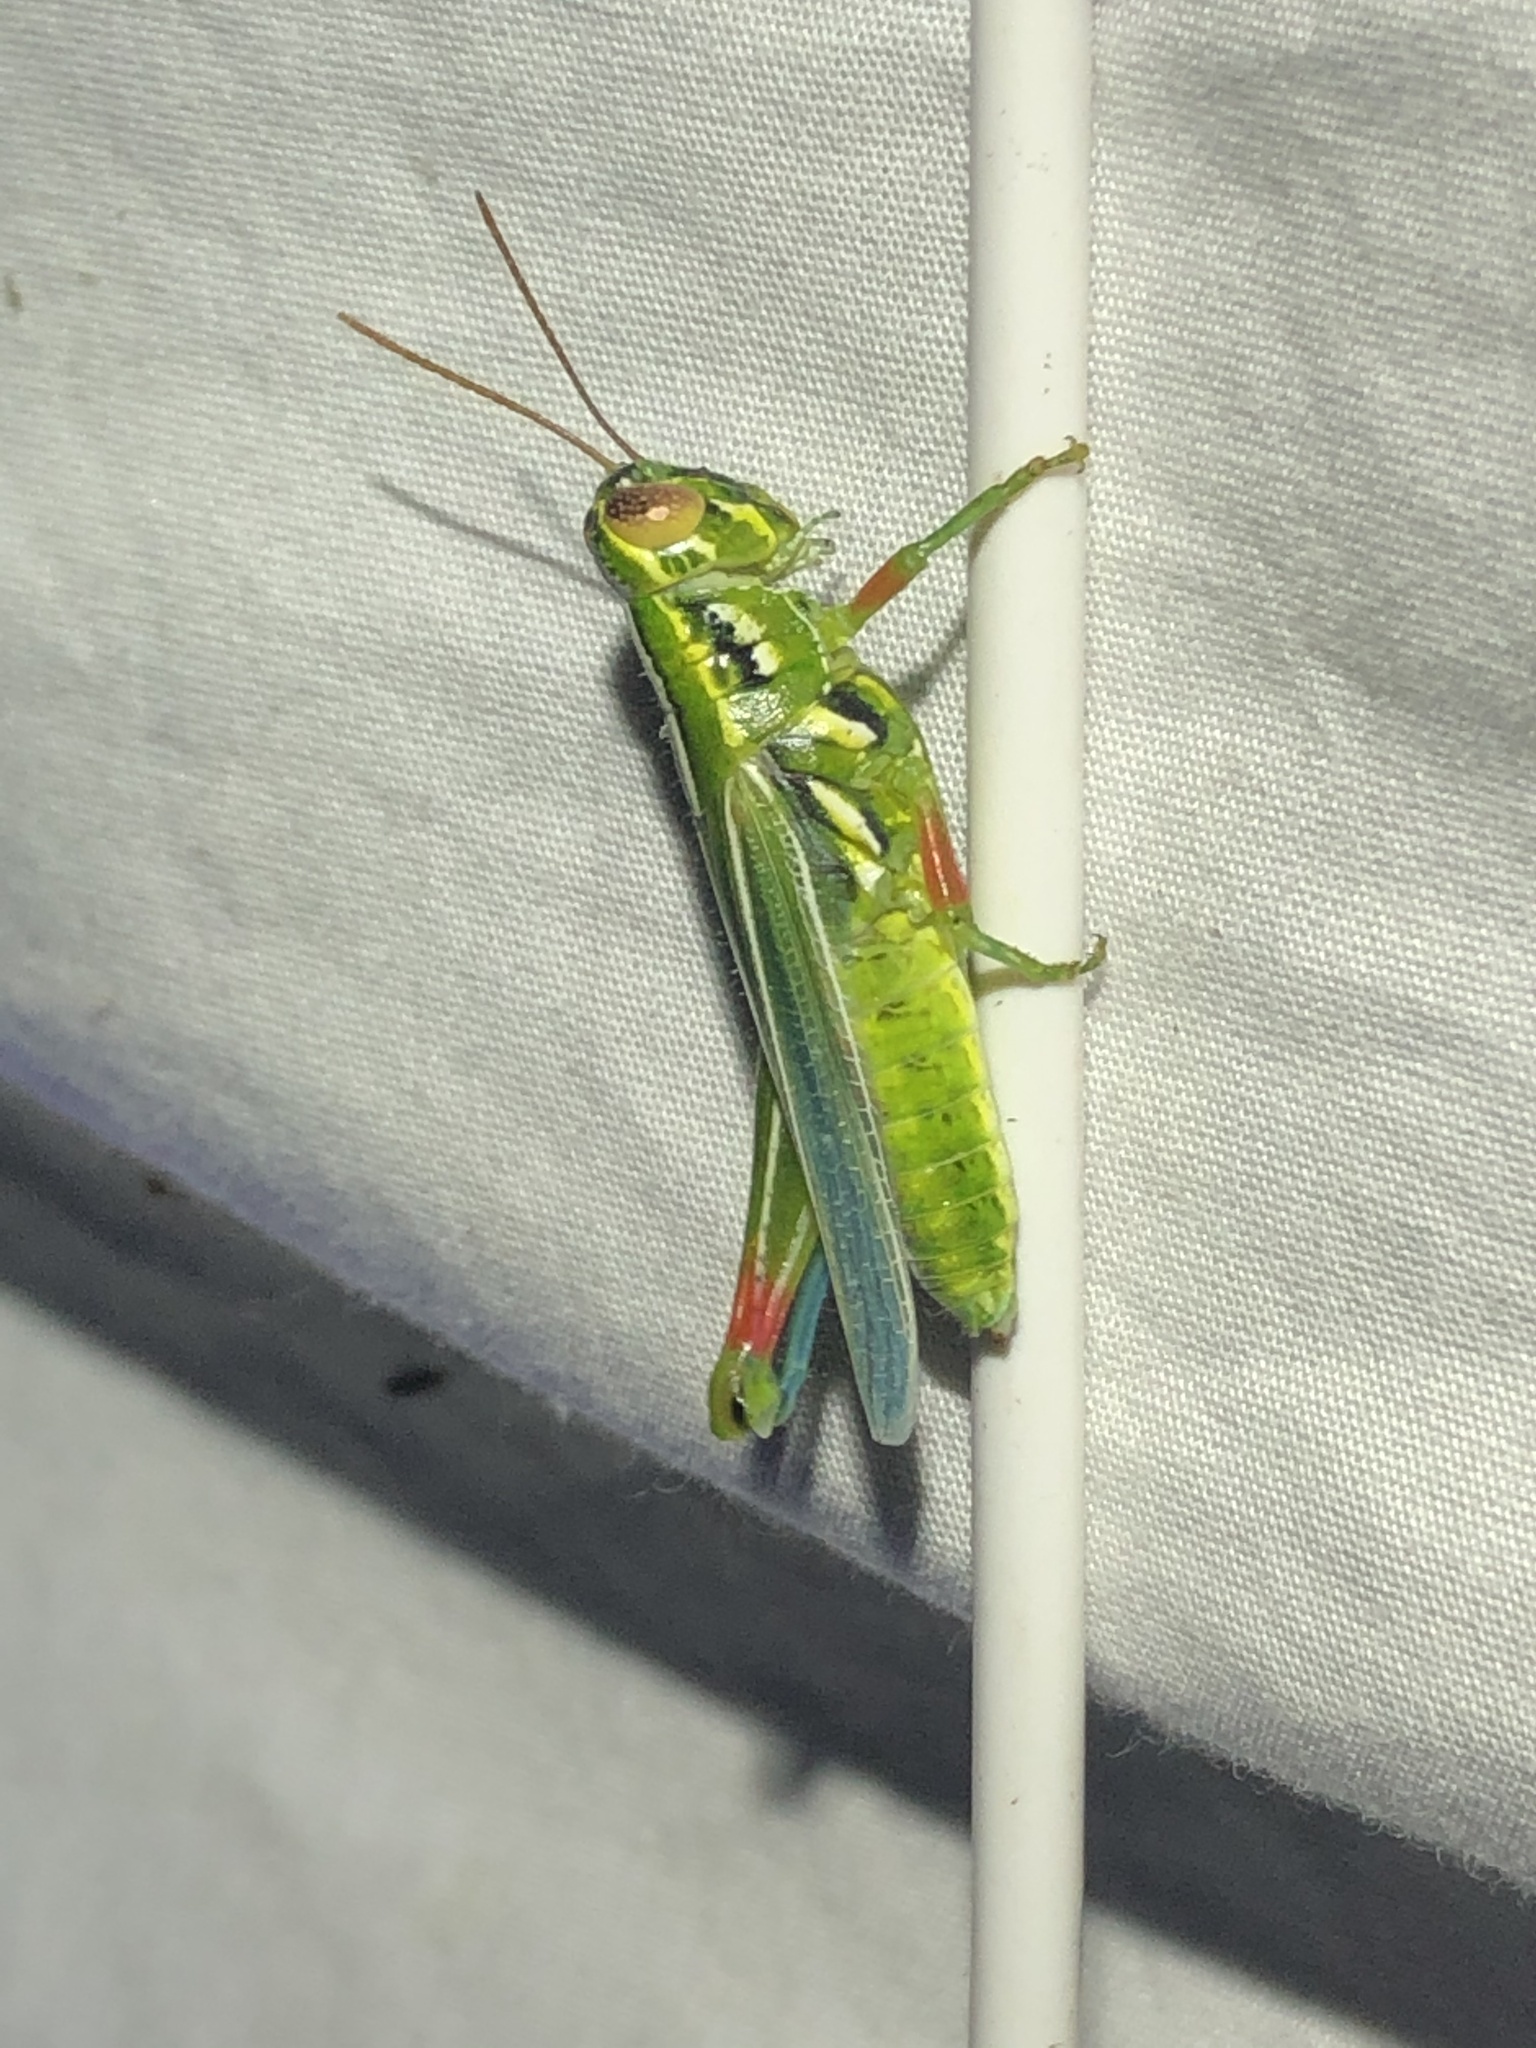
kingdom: Animalia
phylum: Arthropoda
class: Insecta
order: Orthoptera
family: Acrididae
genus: Hesperotettix
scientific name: Hesperotettix viridis
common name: Meadow purple-striped grasshopper
